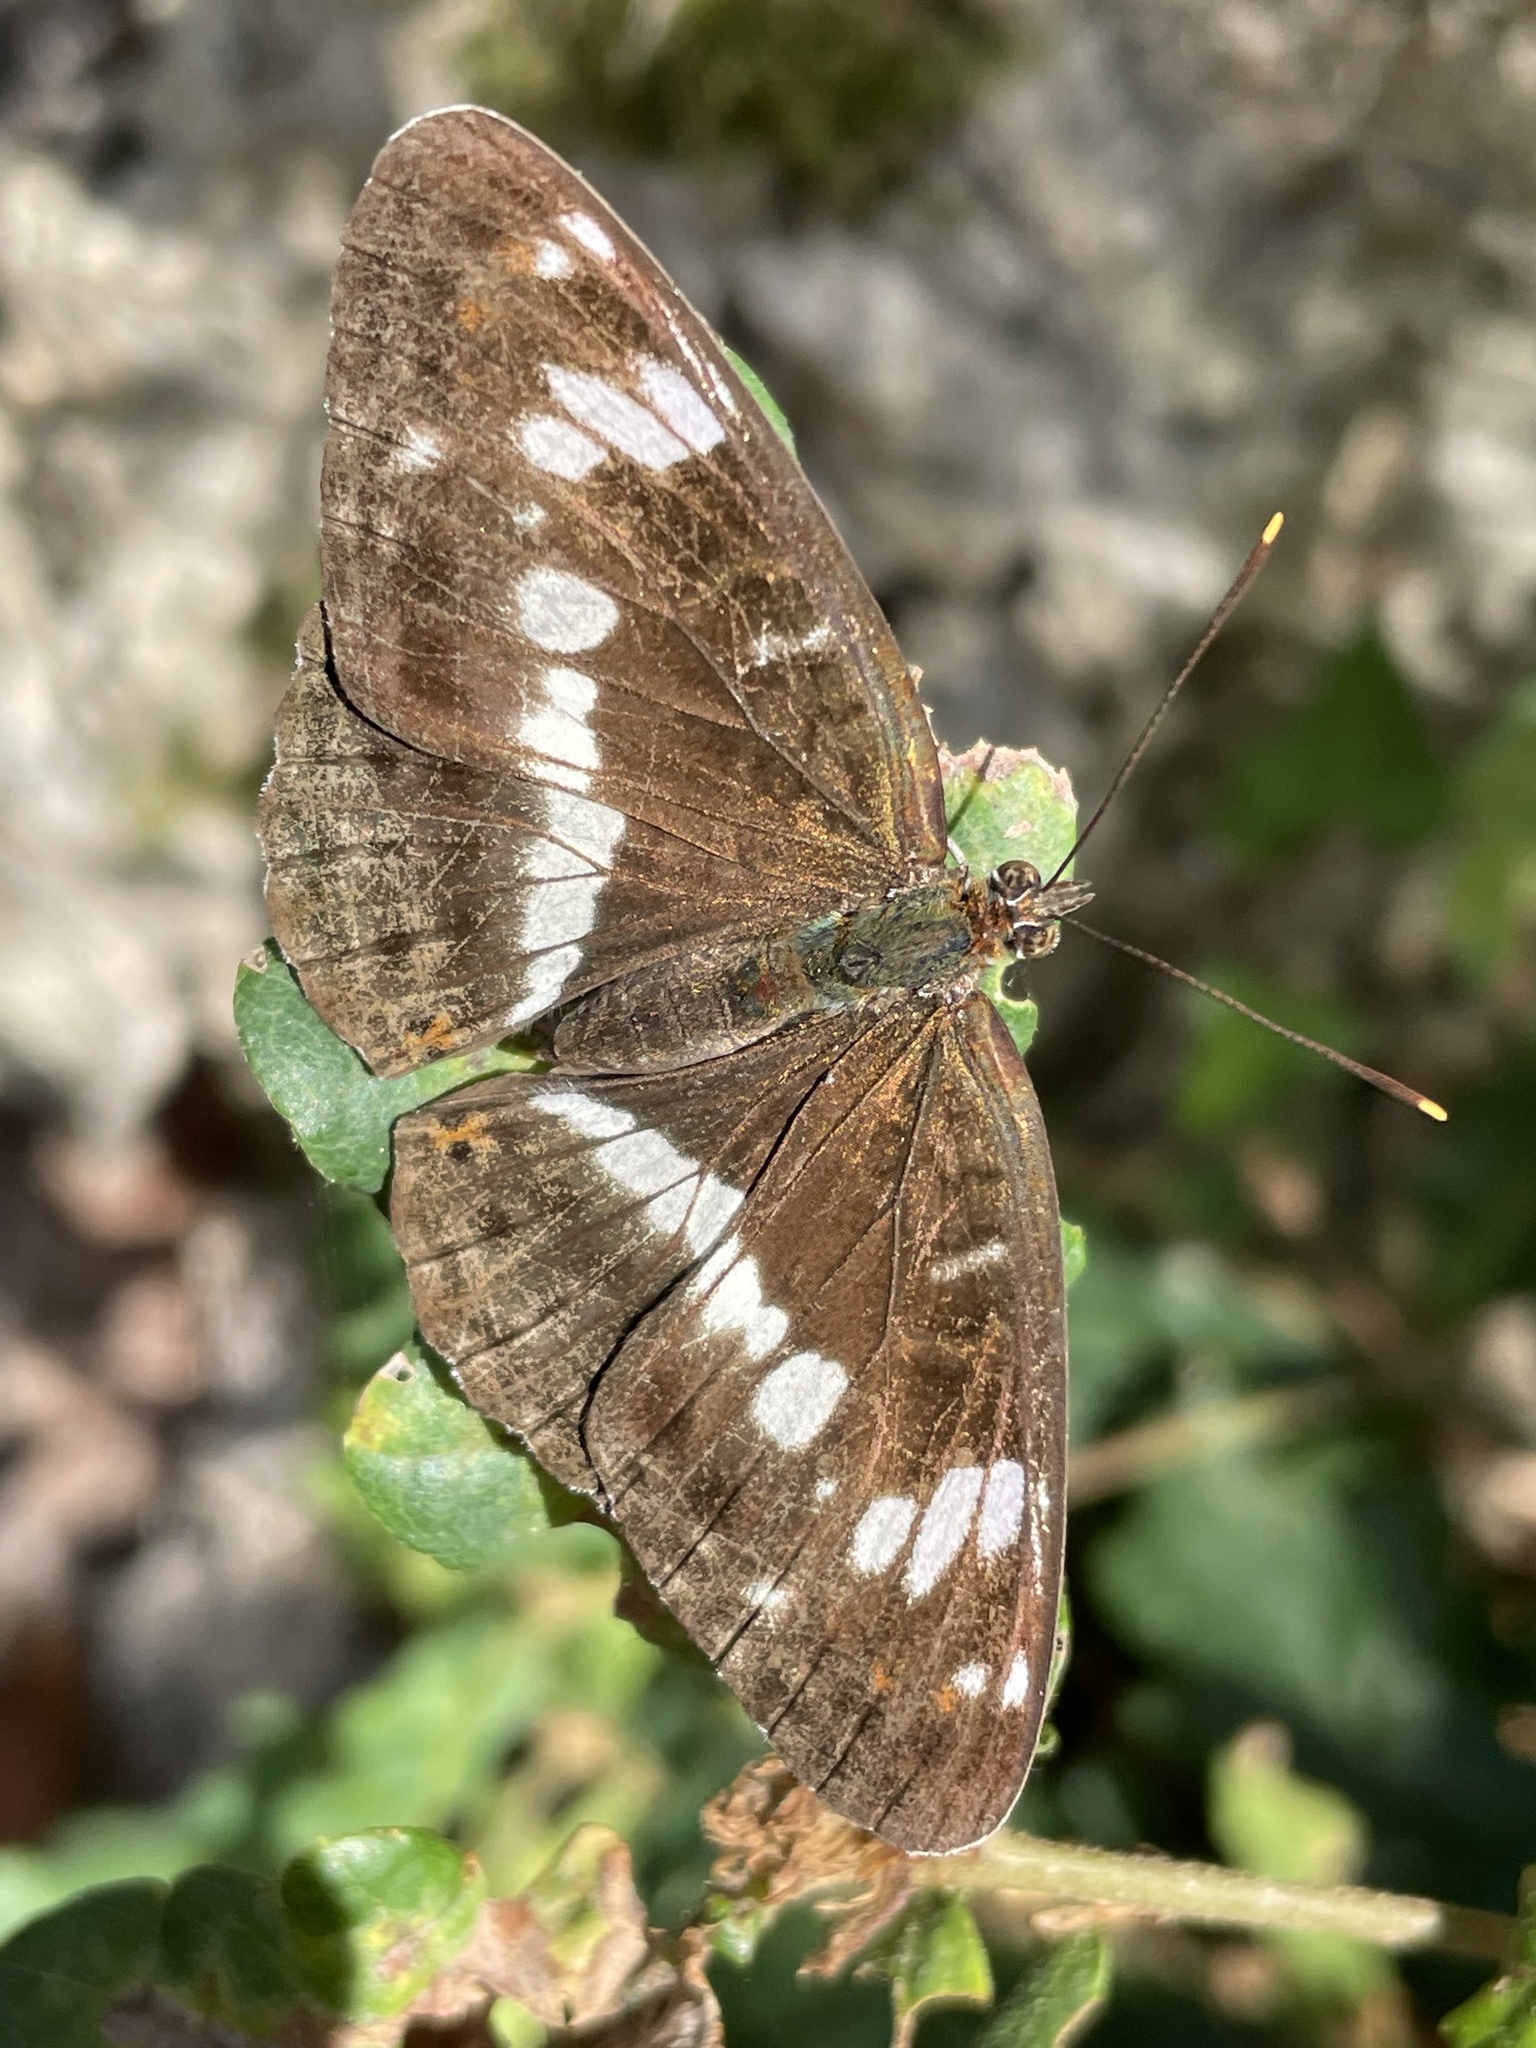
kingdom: Animalia
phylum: Arthropoda
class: Insecta
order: Lepidoptera
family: Nymphalidae
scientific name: Nymphalidae
